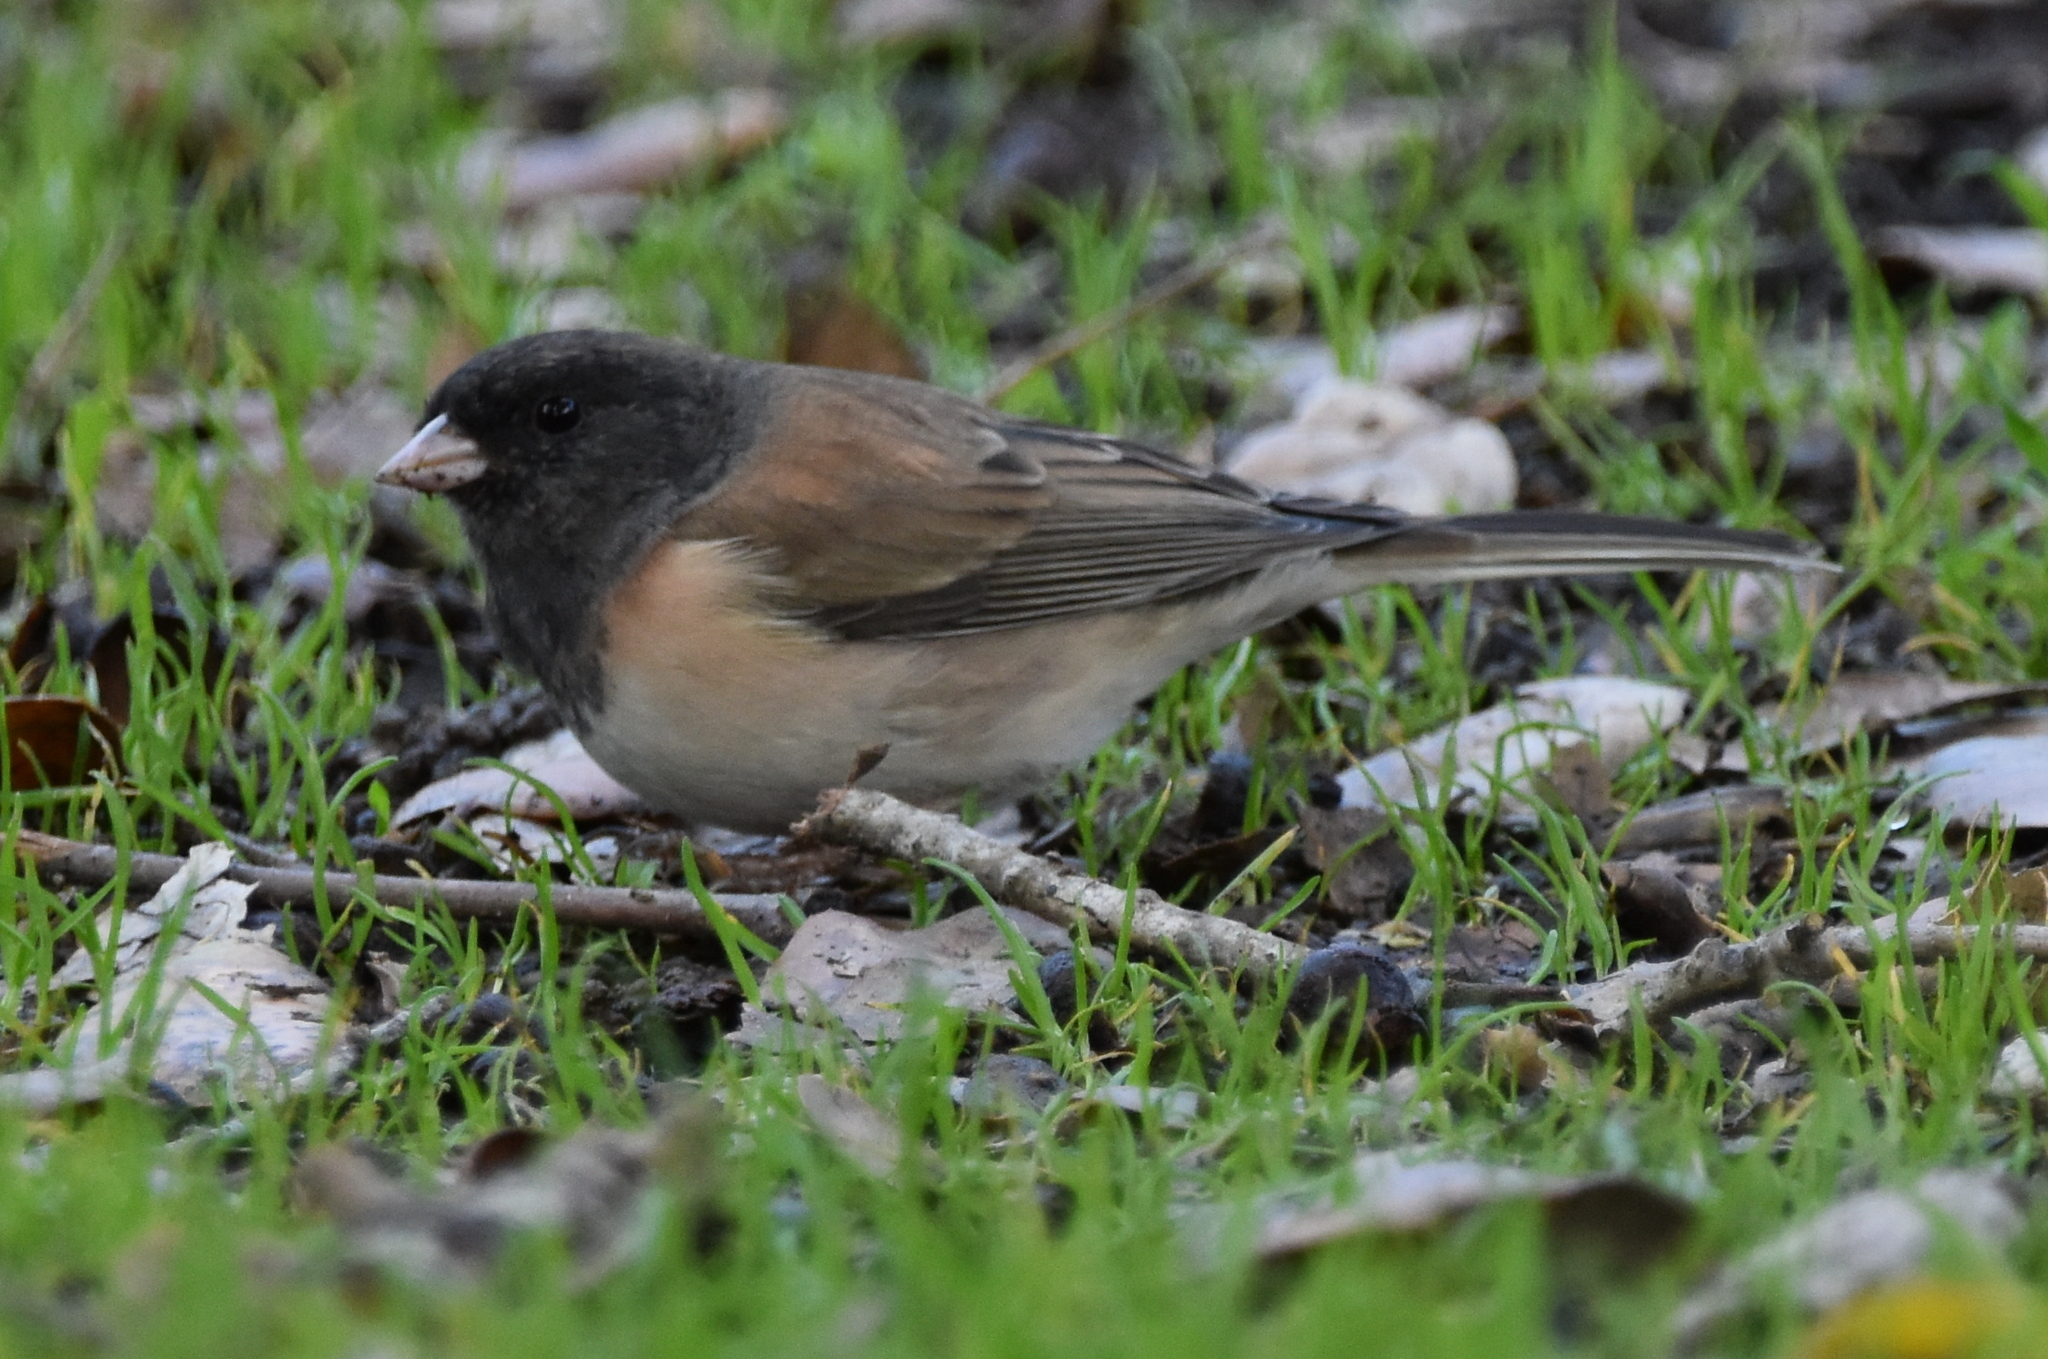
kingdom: Animalia
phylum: Chordata
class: Aves
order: Passeriformes
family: Passerellidae
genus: Junco
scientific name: Junco hyemalis
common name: Dark-eyed junco
